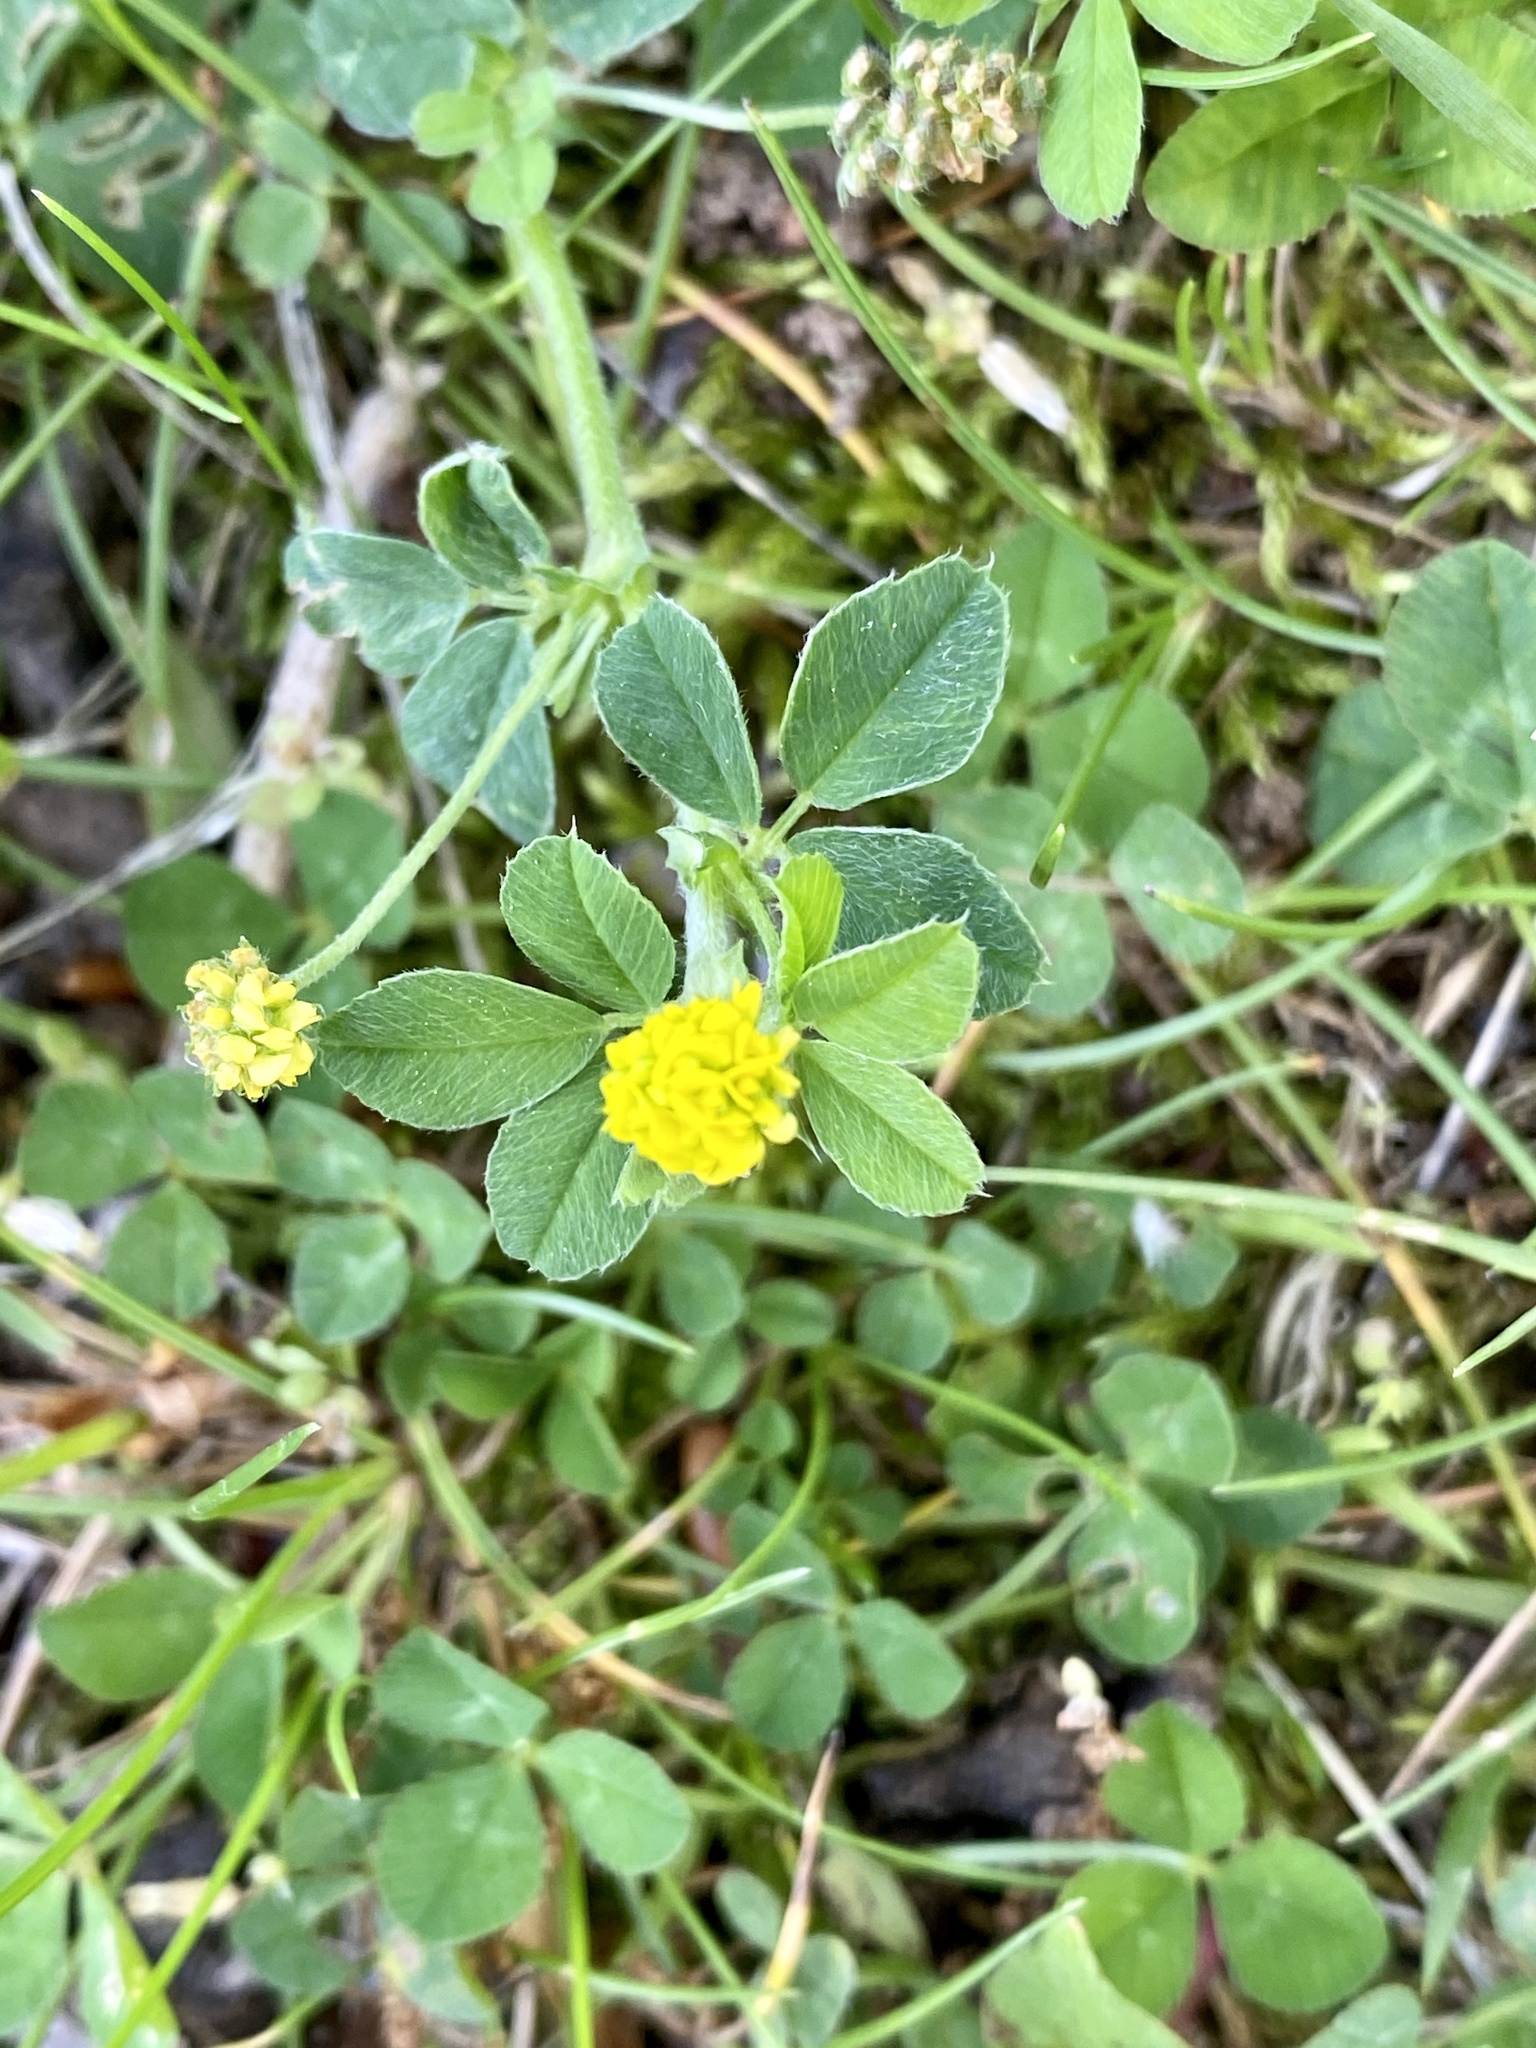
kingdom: Plantae
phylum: Tracheophyta
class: Magnoliopsida
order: Fabales
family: Fabaceae
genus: Medicago
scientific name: Medicago lupulina
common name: Black medick
